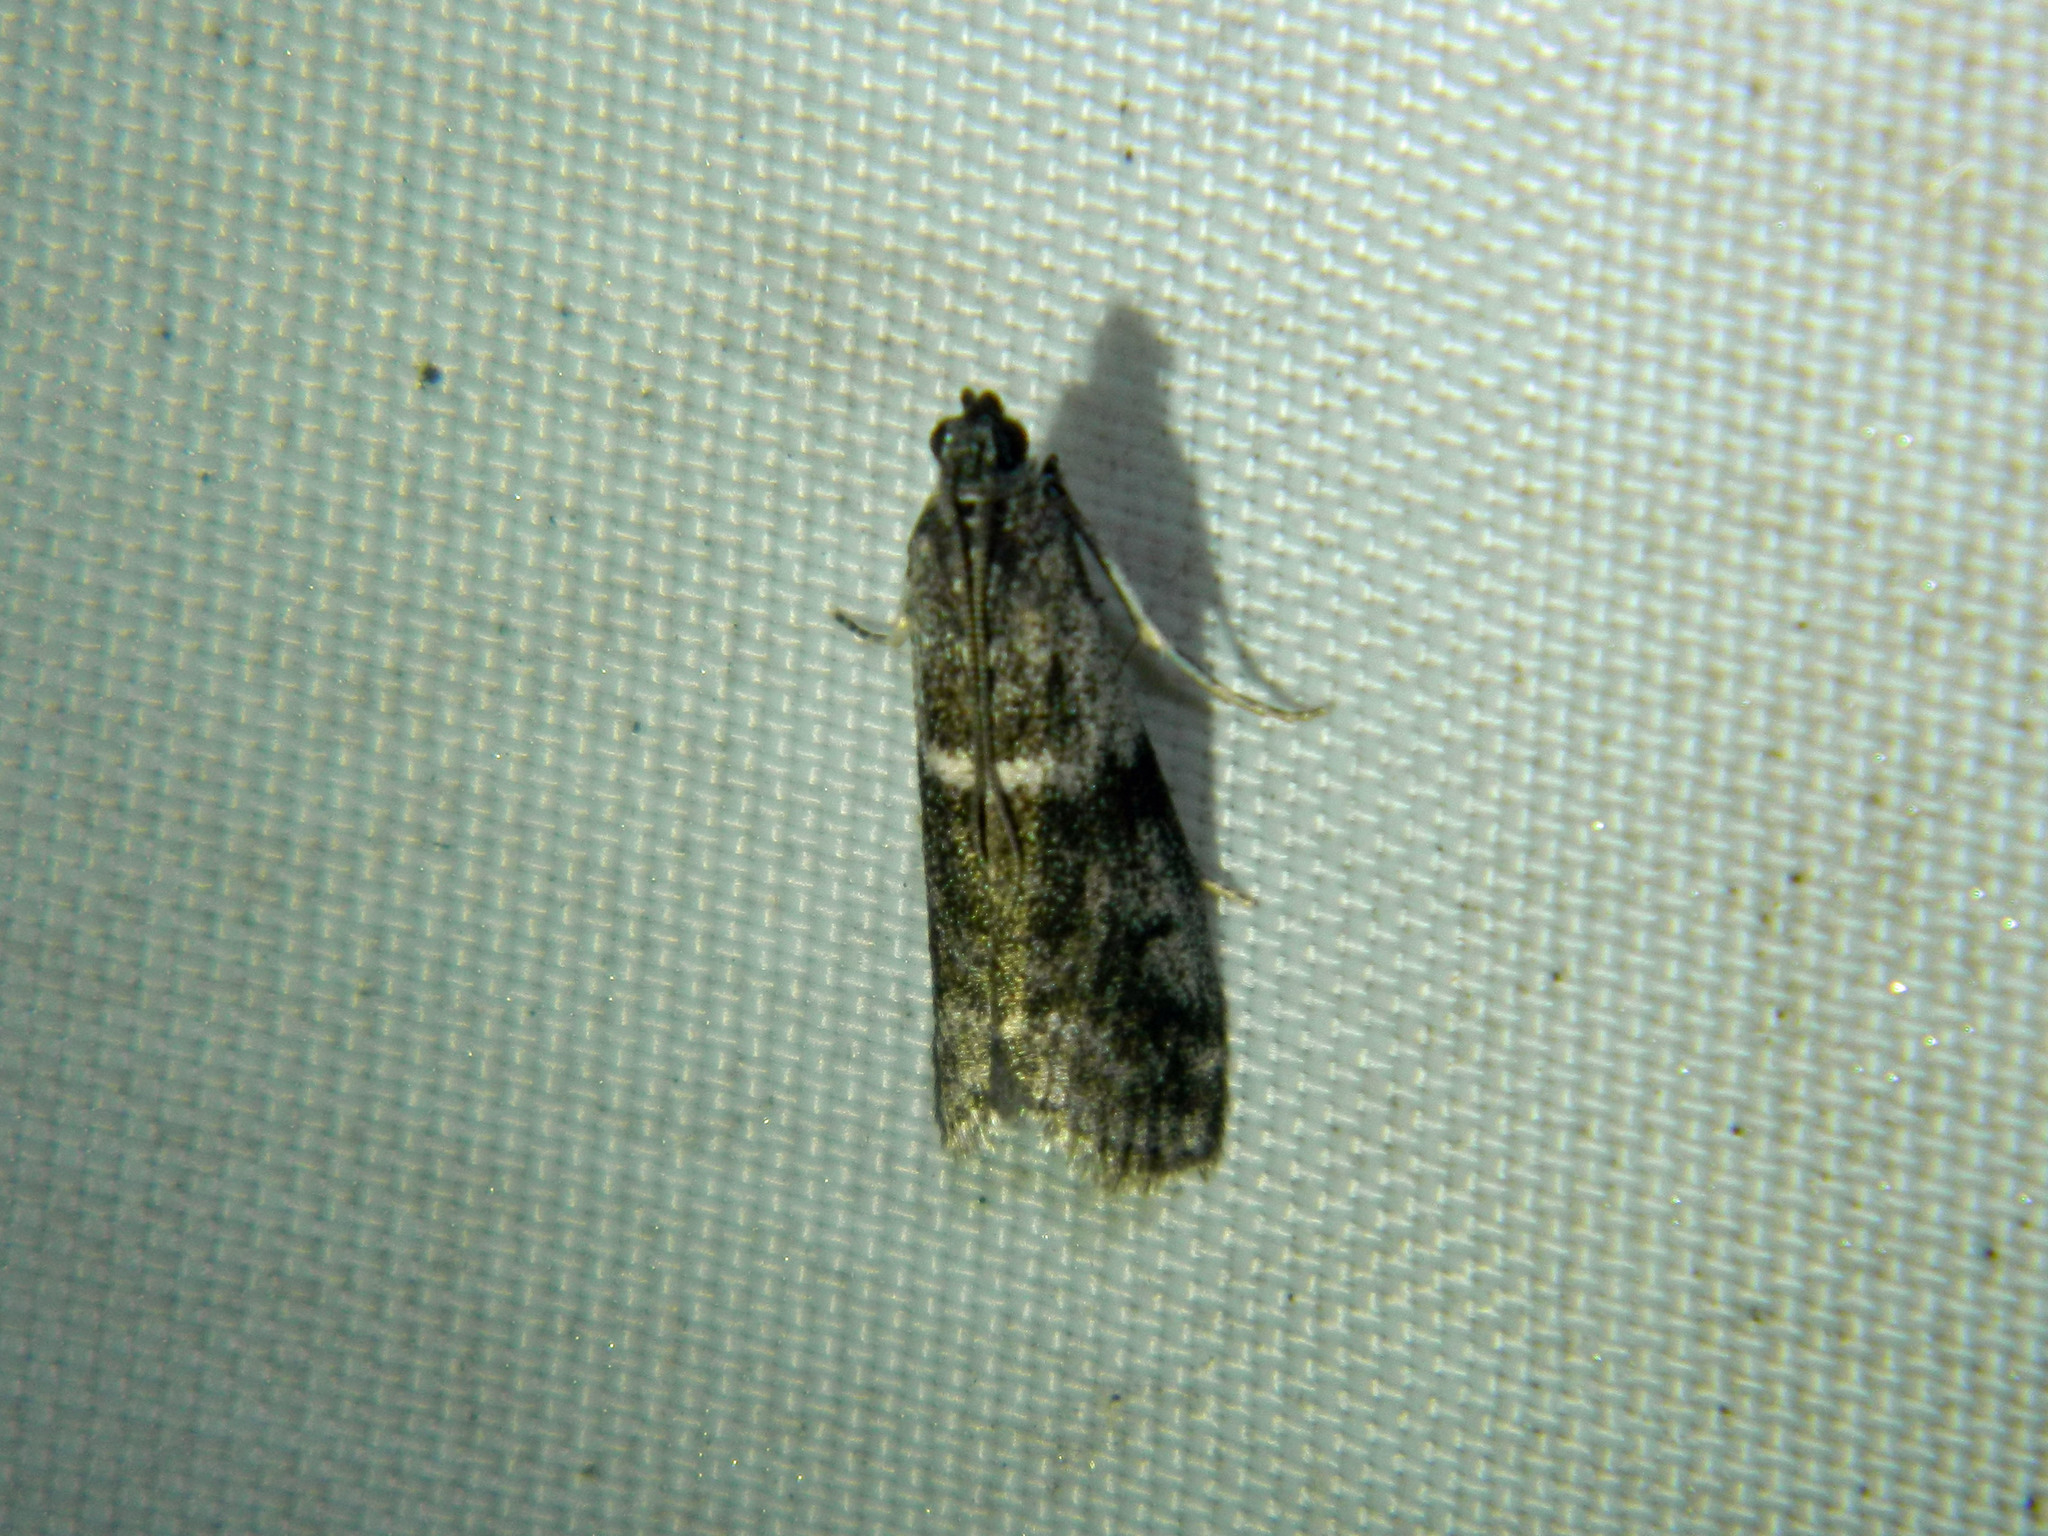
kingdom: Animalia
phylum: Arthropoda
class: Insecta
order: Lepidoptera
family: Pyralidae
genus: Apomyelois
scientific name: Apomyelois bistriatella
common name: Heath knot-horn
